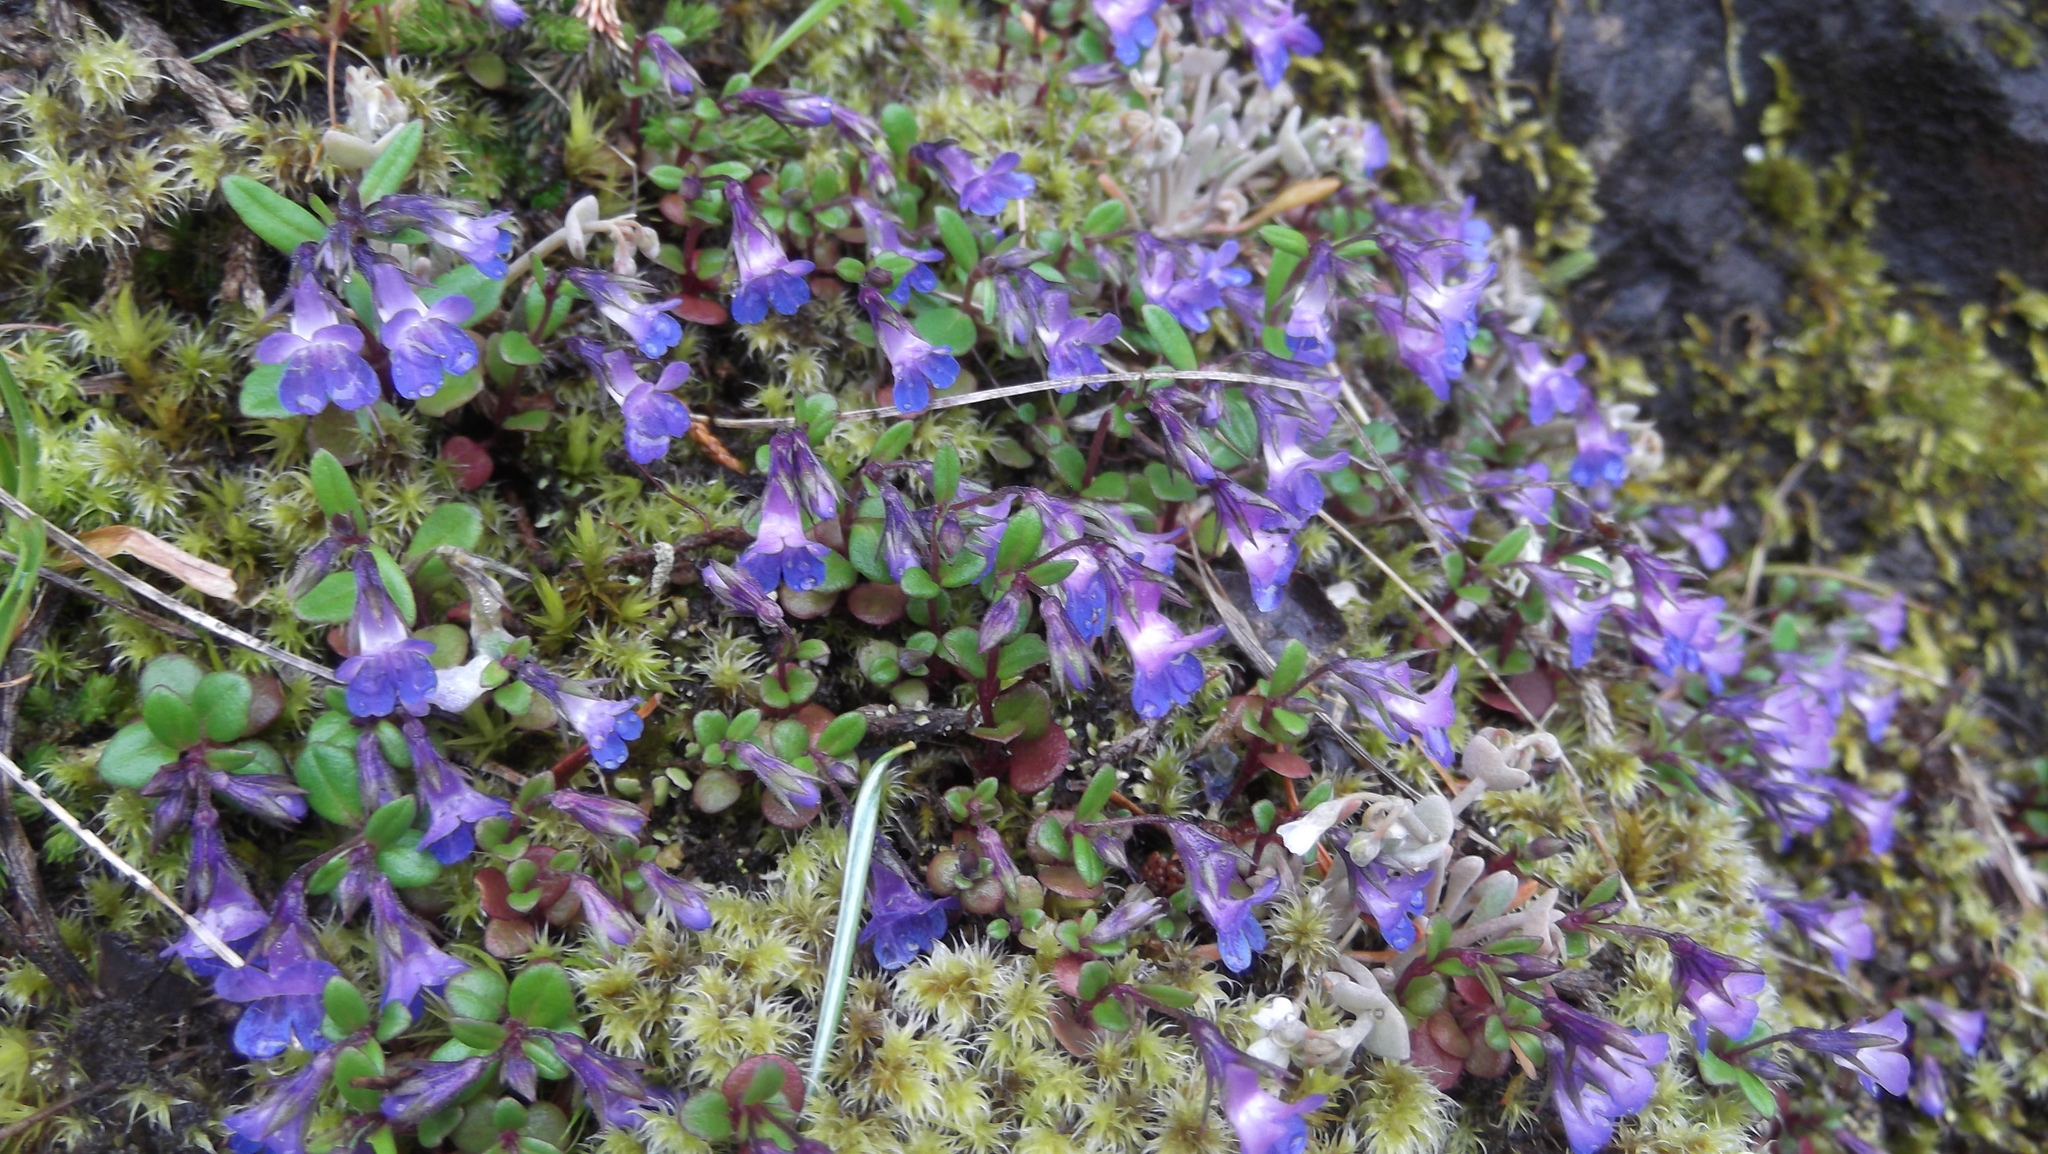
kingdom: Plantae
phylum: Tracheophyta
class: Magnoliopsida
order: Lamiales
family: Plantaginaceae
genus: Collinsia
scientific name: Collinsia parviflora
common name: Blue-lips
